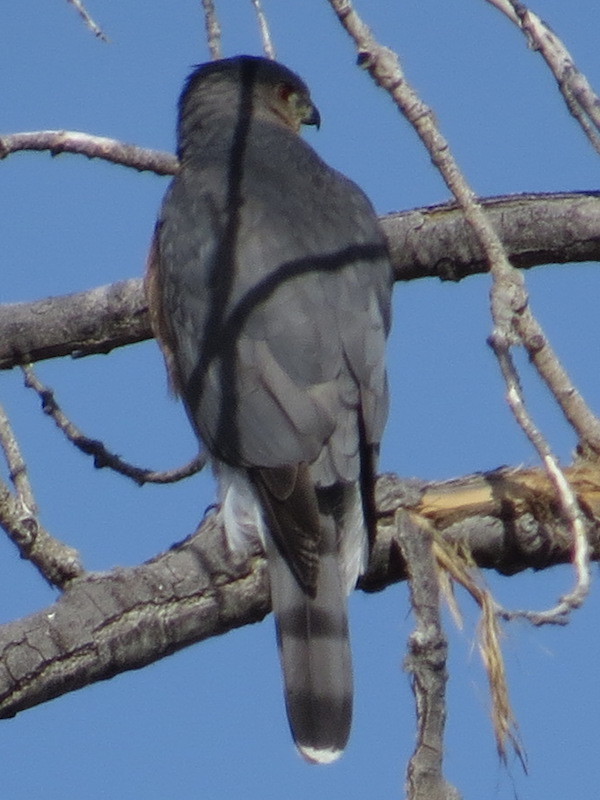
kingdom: Animalia
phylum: Chordata
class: Aves
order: Accipitriformes
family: Accipitridae
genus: Accipiter
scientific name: Accipiter cooperii
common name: Cooper's hawk
